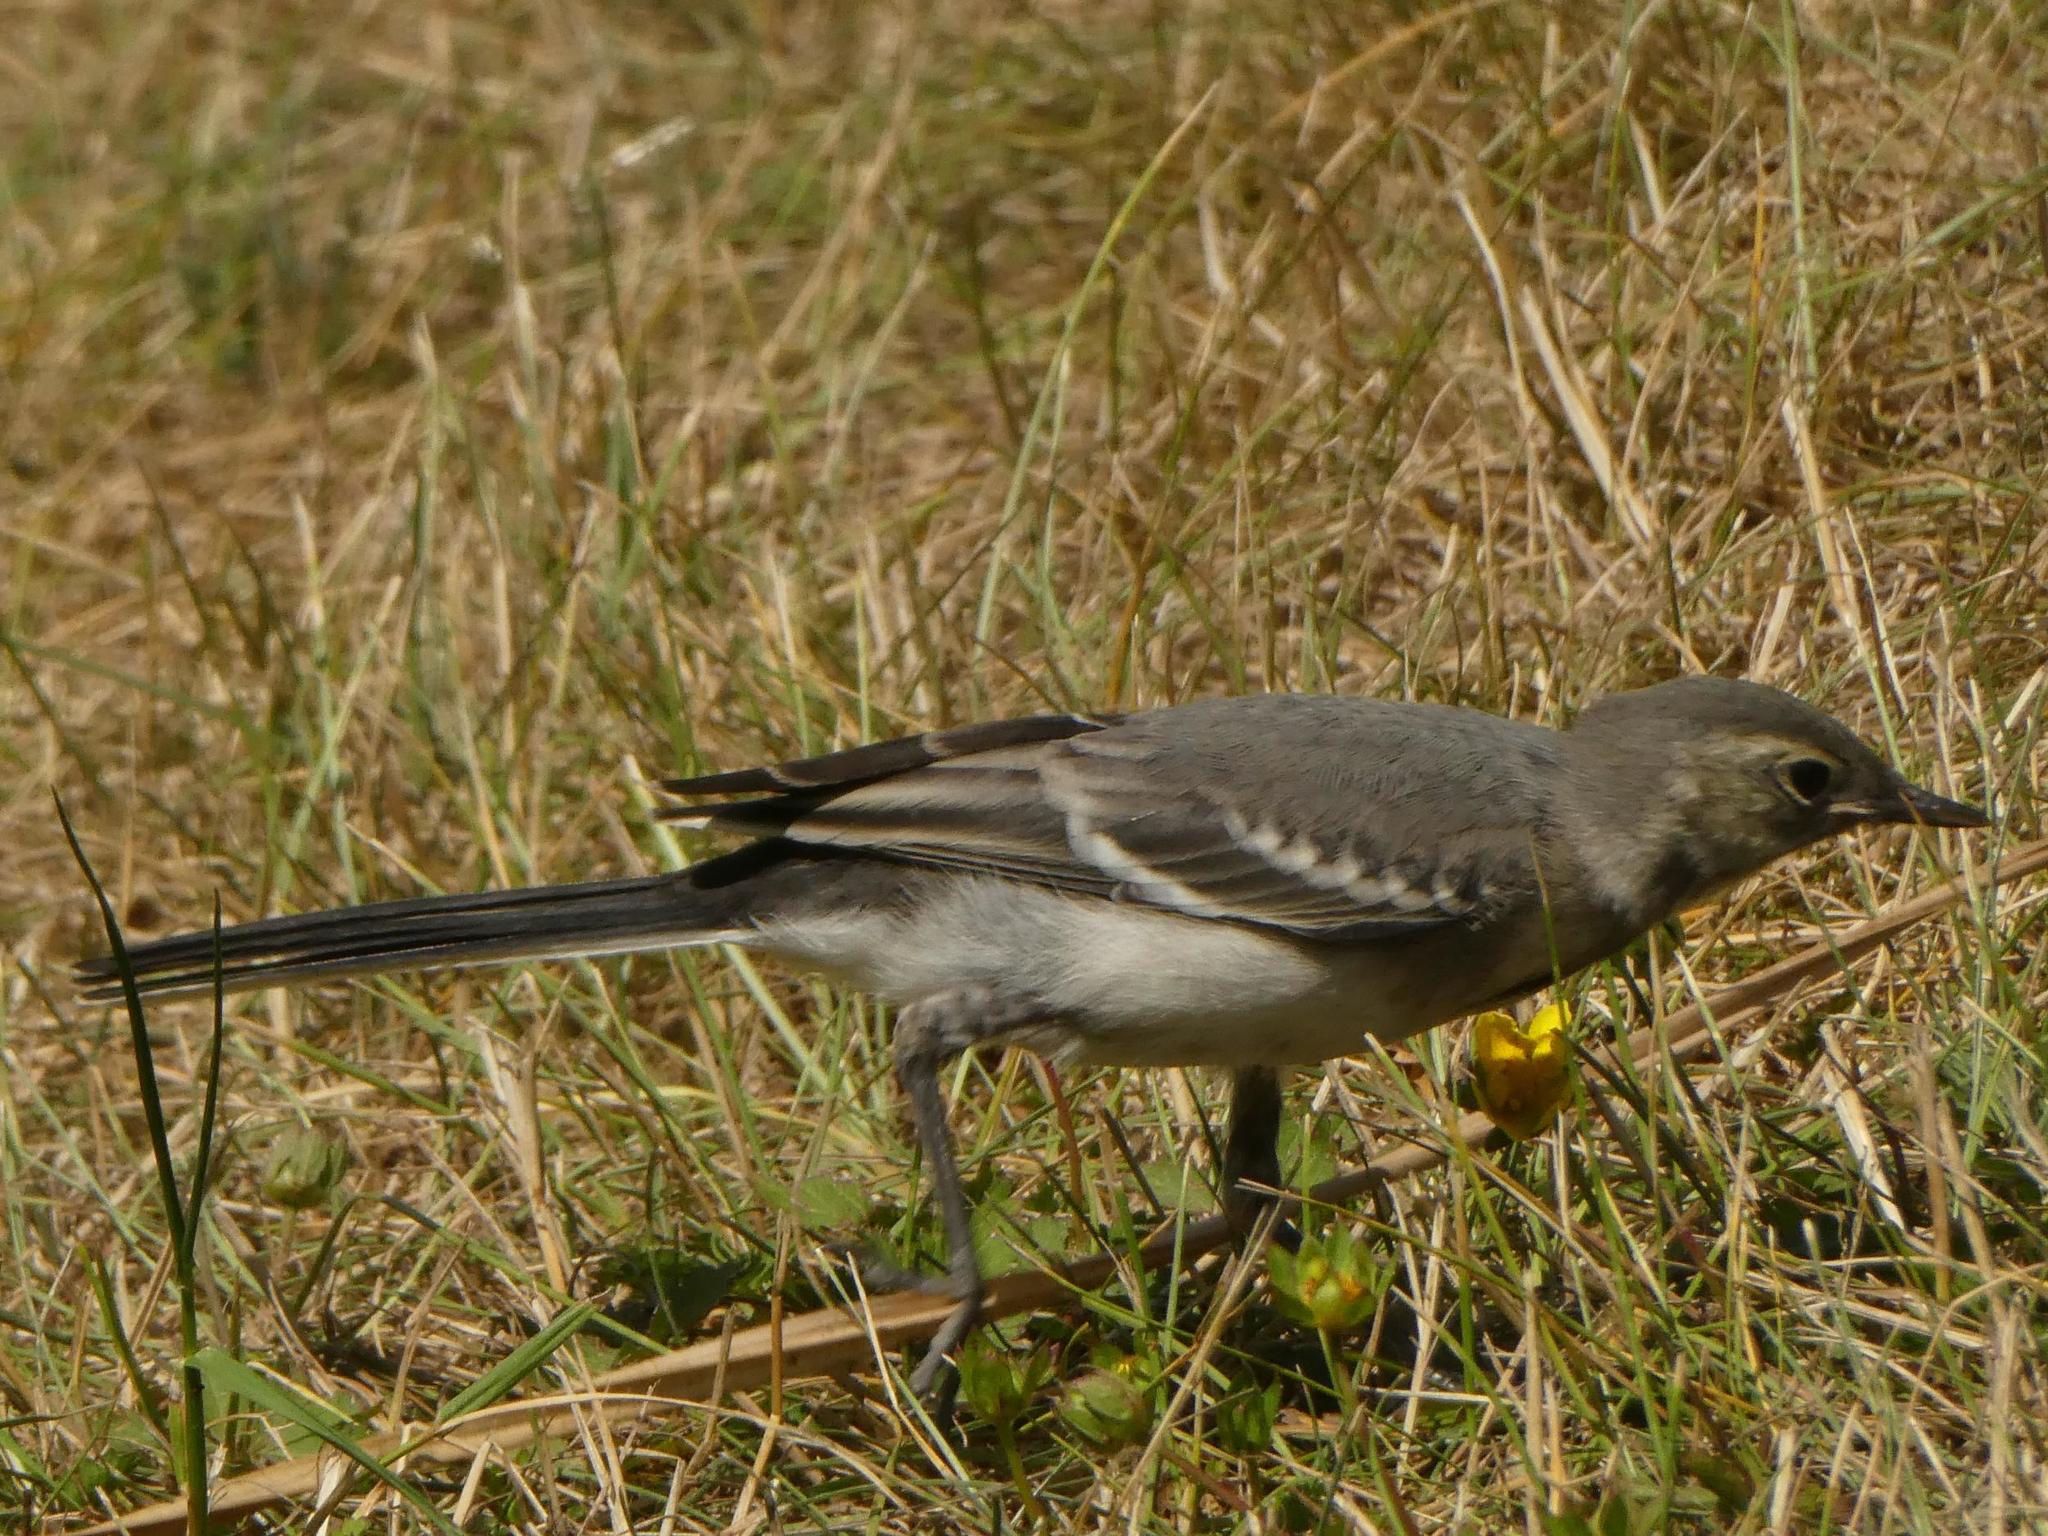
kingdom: Animalia
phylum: Chordata
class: Aves
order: Passeriformes
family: Motacillidae
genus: Motacilla
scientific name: Motacilla alba
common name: White wagtail
